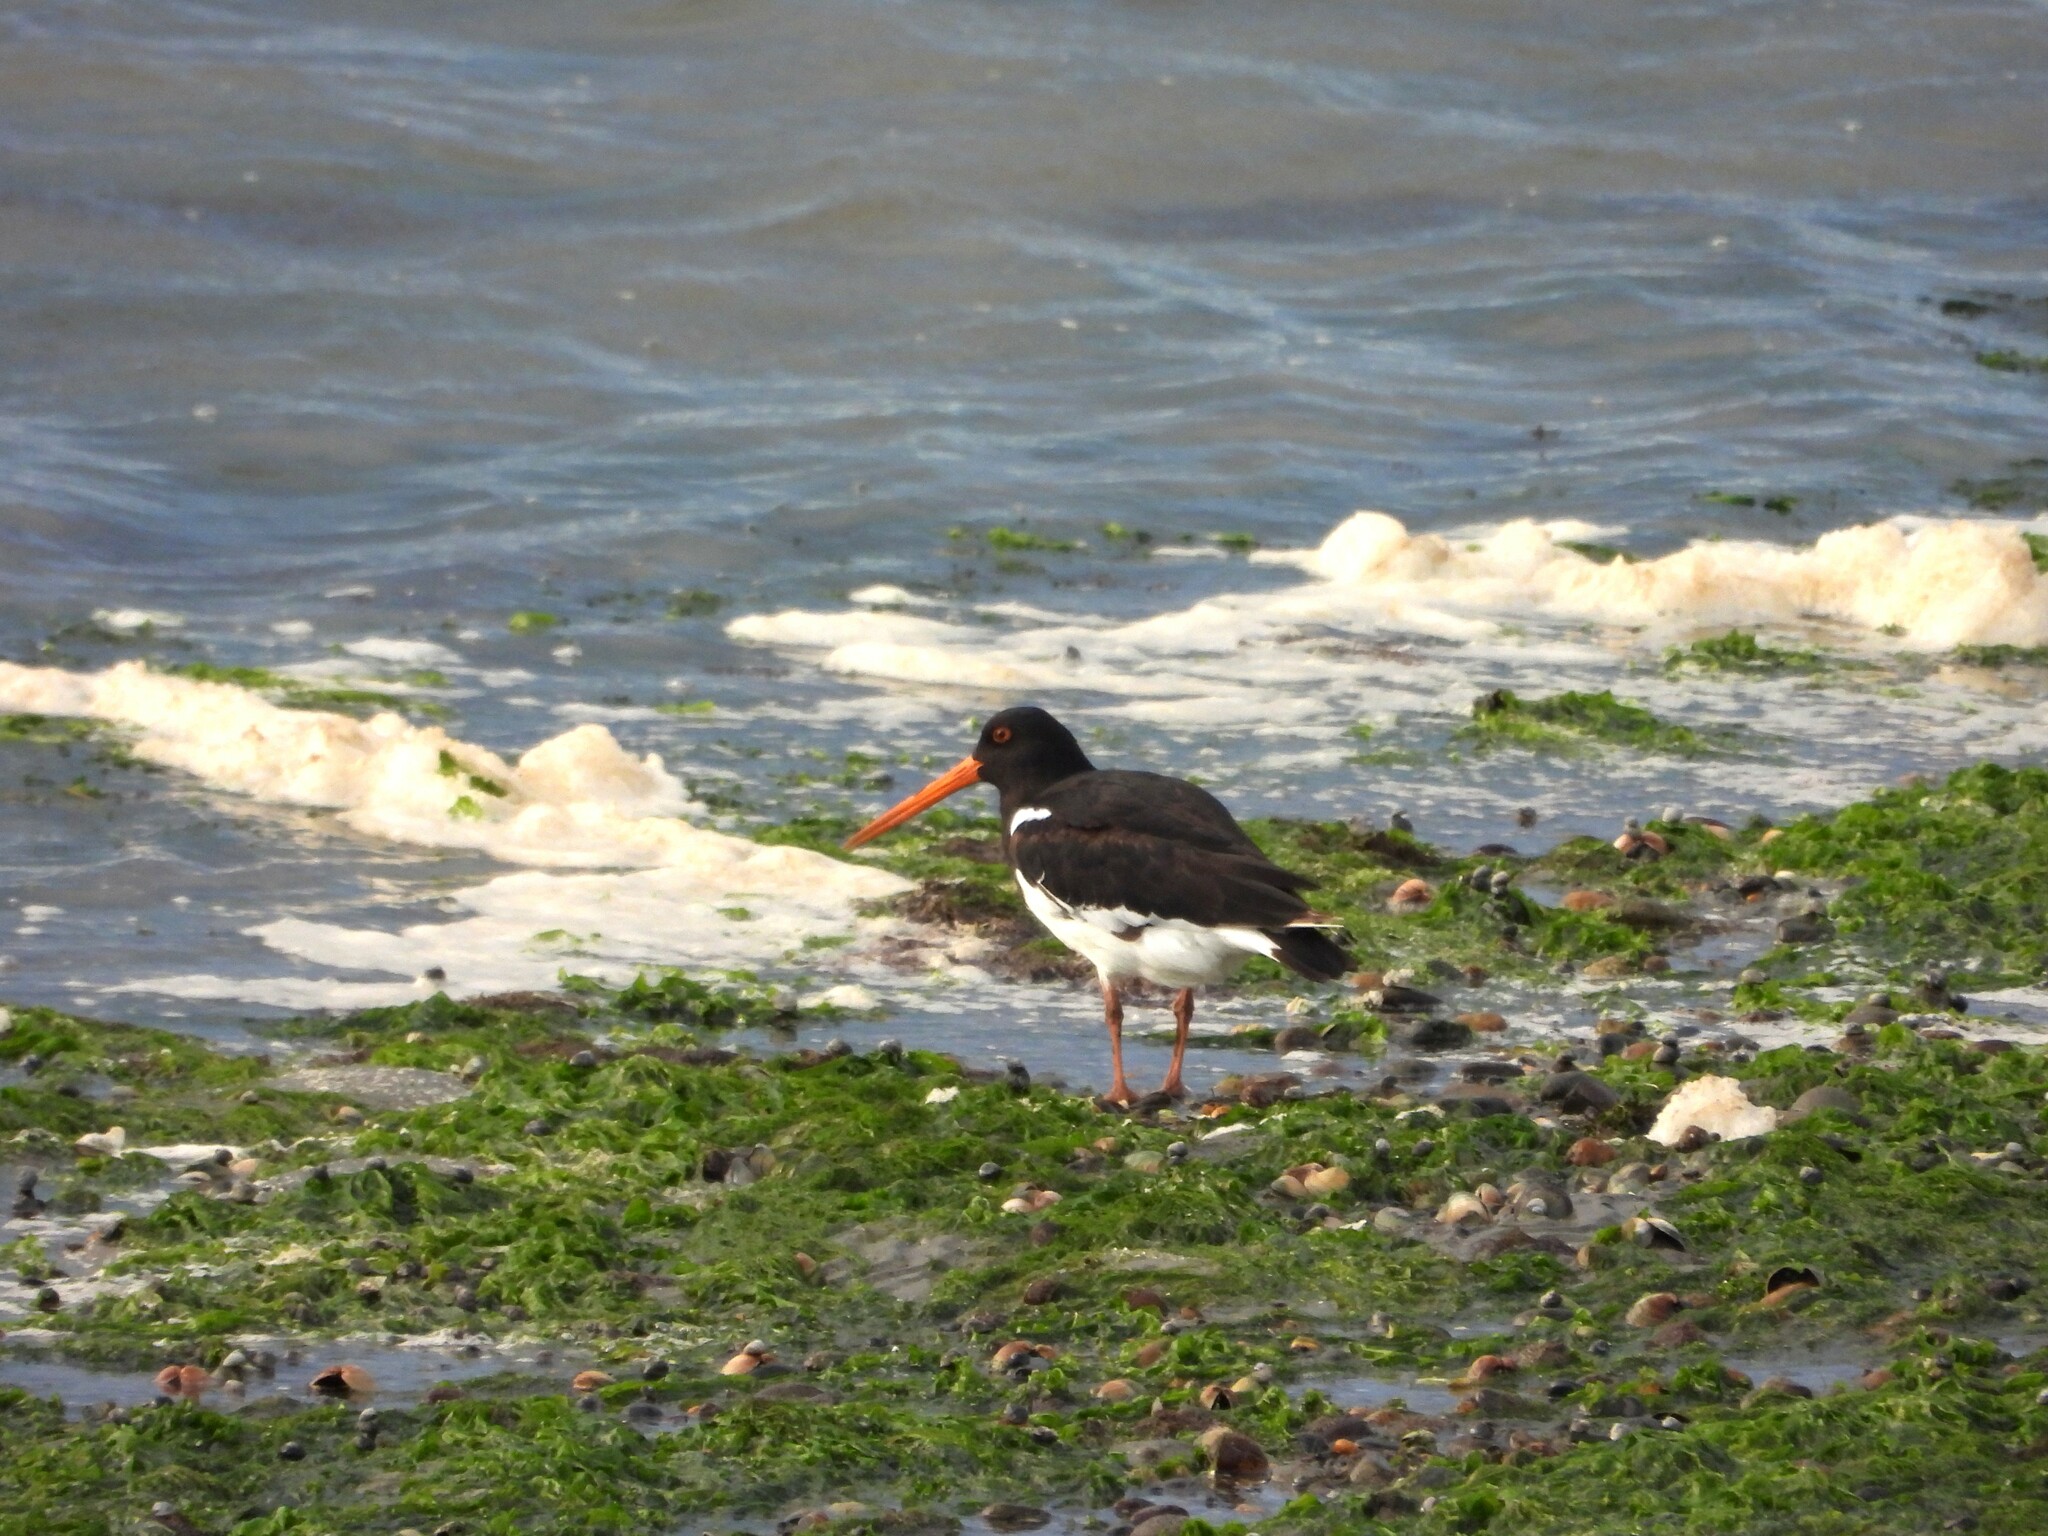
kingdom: Animalia
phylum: Chordata
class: Aves
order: Charadriiformes
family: Haematopodidae
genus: Haematopus
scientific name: Haematopus finschi
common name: South island oystercatcher
